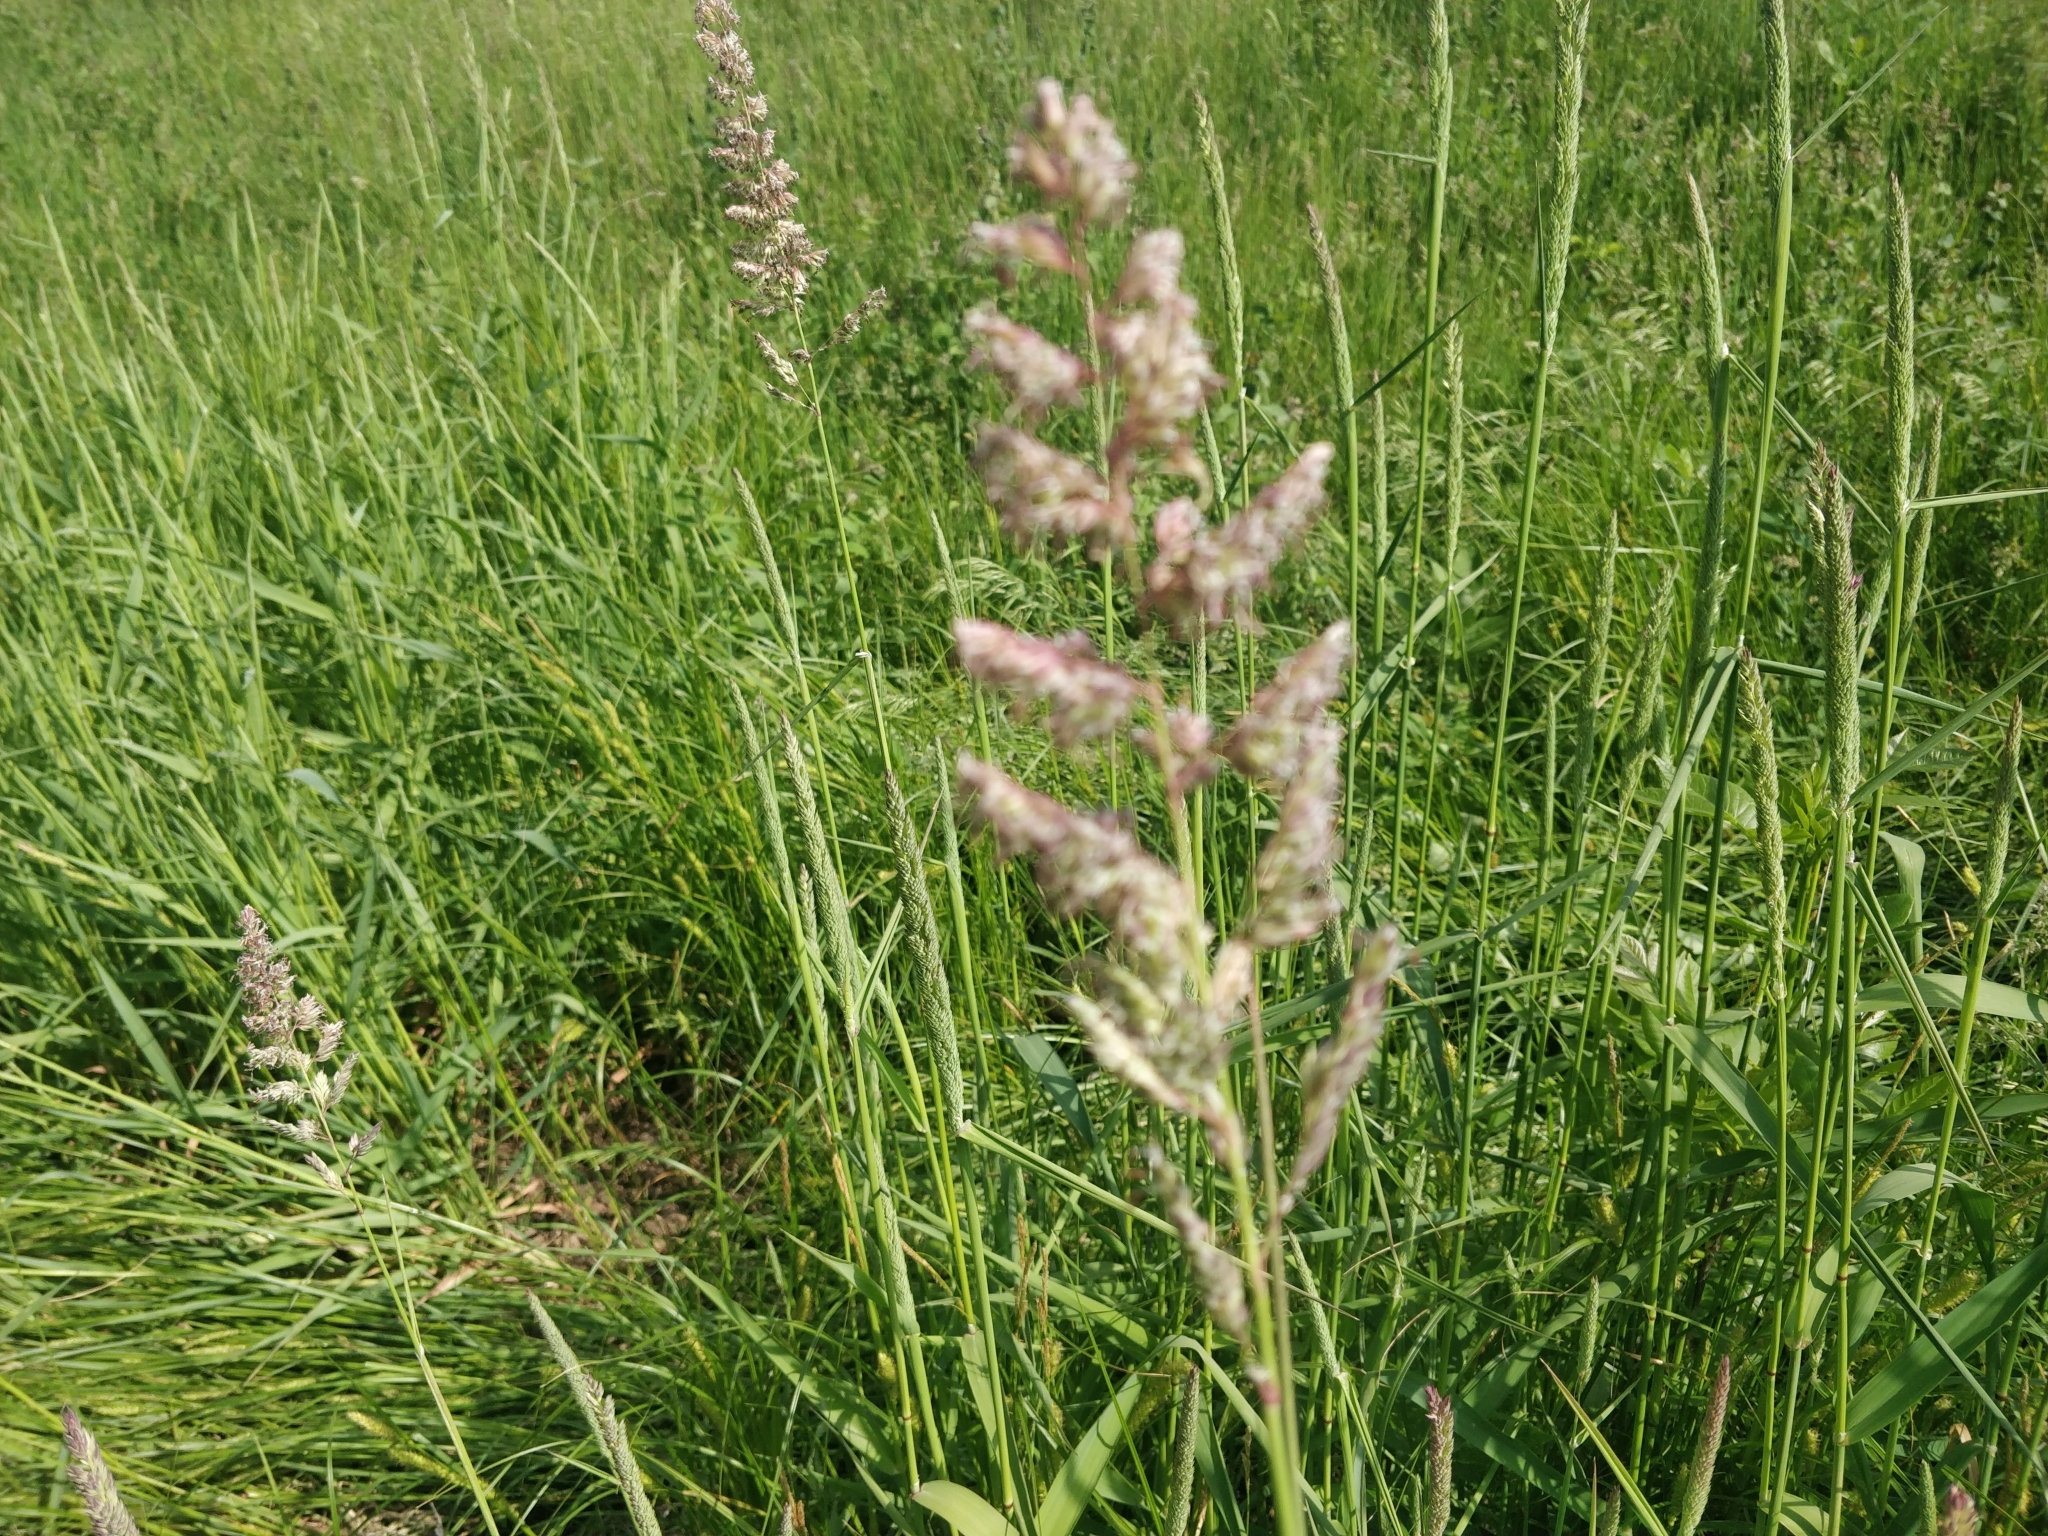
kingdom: Plantae
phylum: Tracheophyta
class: Liliopsida
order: Poales
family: Poaceae
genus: Phalaris
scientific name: Phalaris arundinacea
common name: Reed canary-grass
